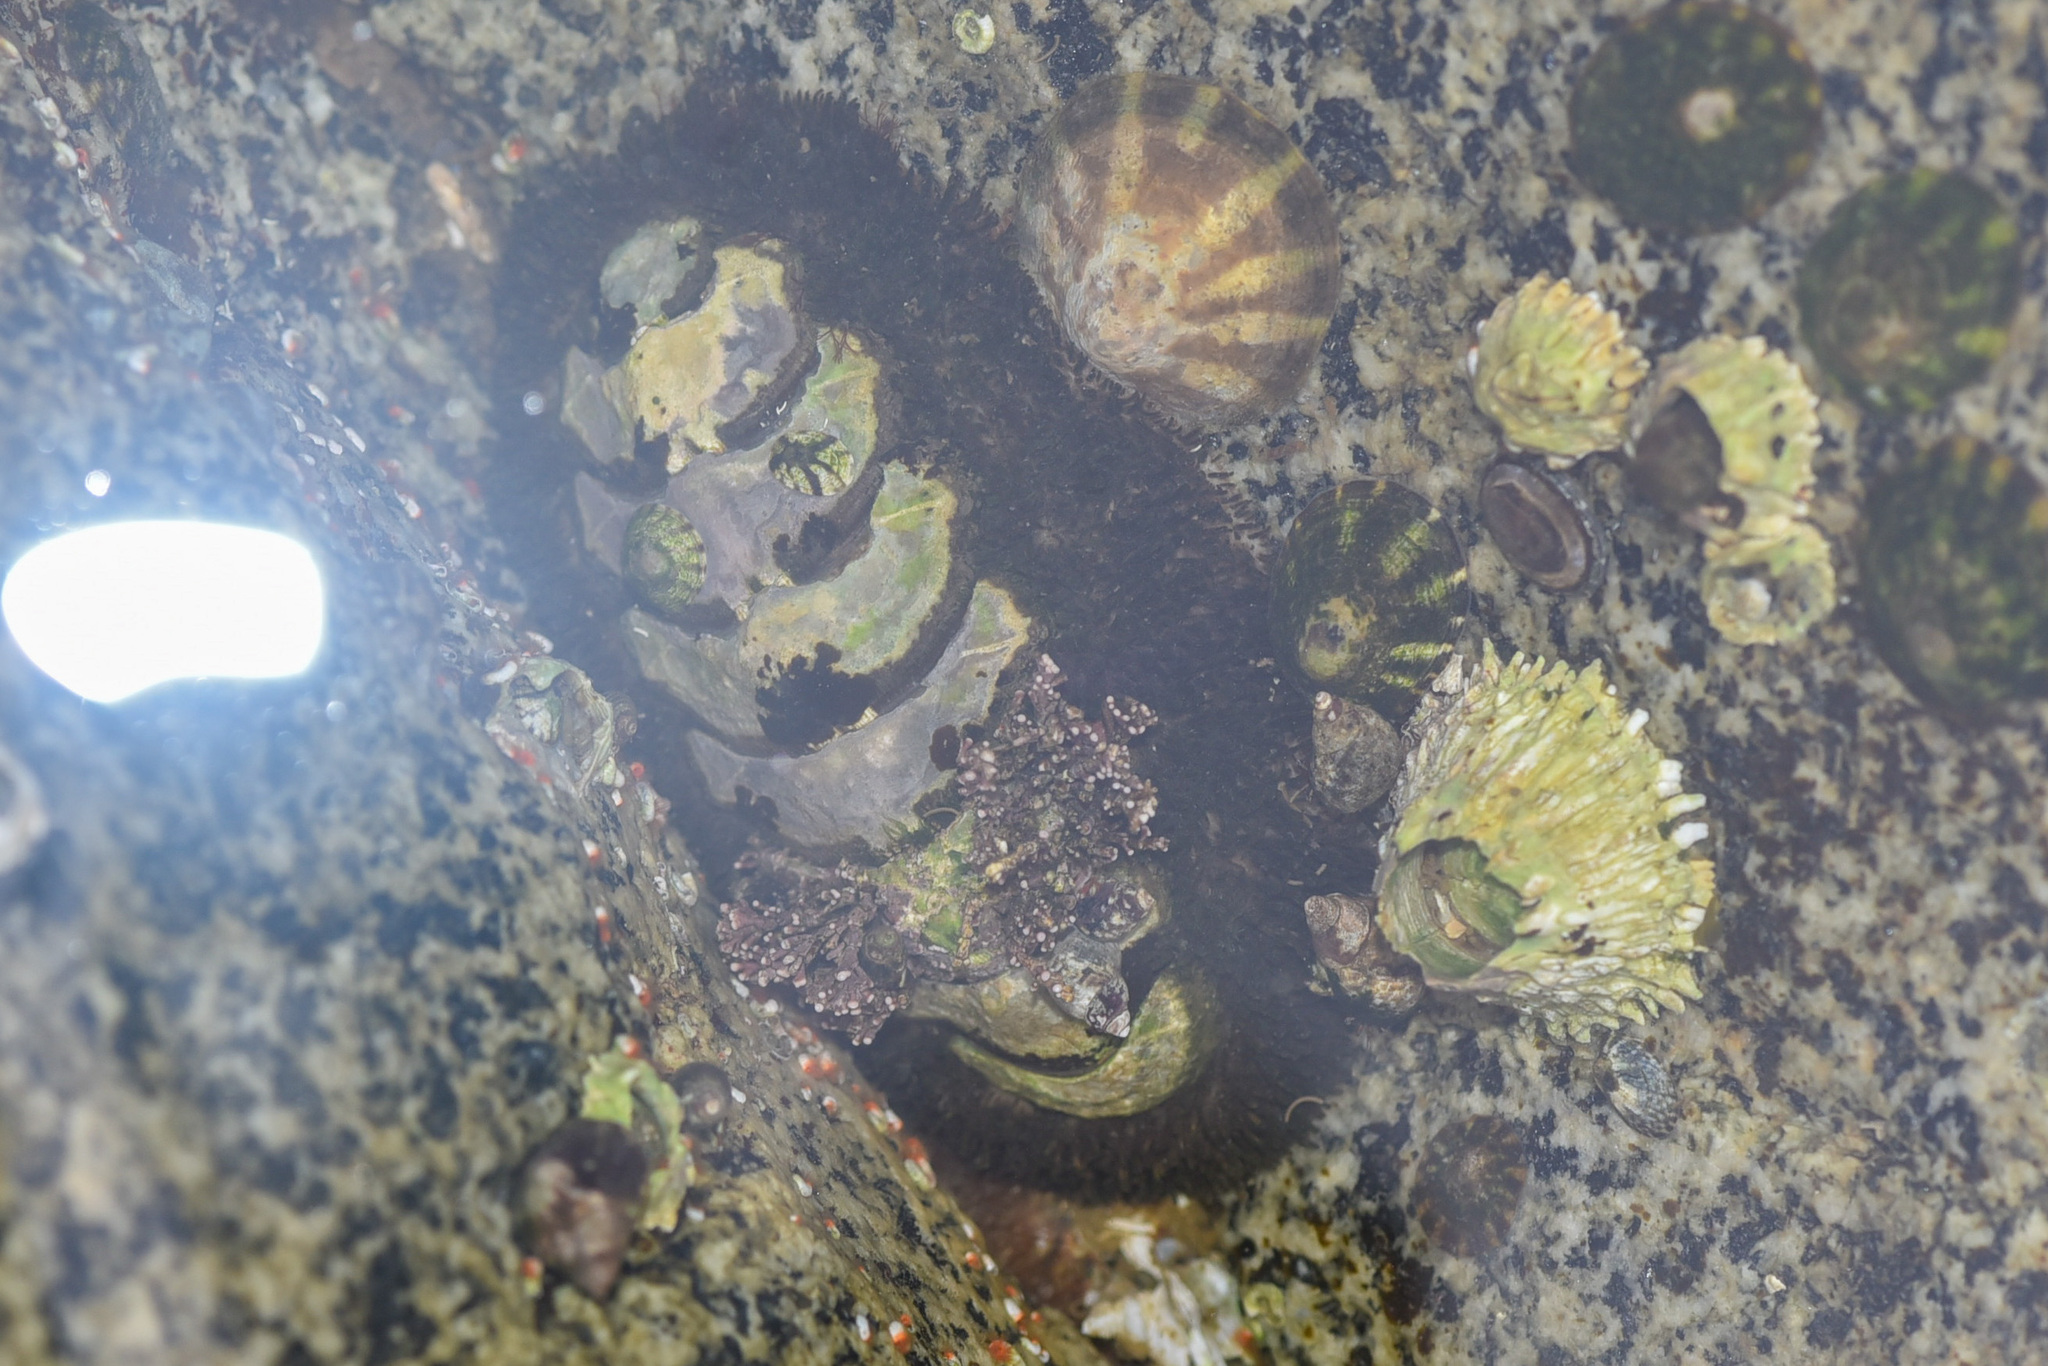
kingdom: Animalia
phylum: Mollusca
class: Polyplacophora
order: Chitonida
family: Mopaliidae
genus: Mopalia
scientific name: Mopalia muscosa
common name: Mossy chiton
